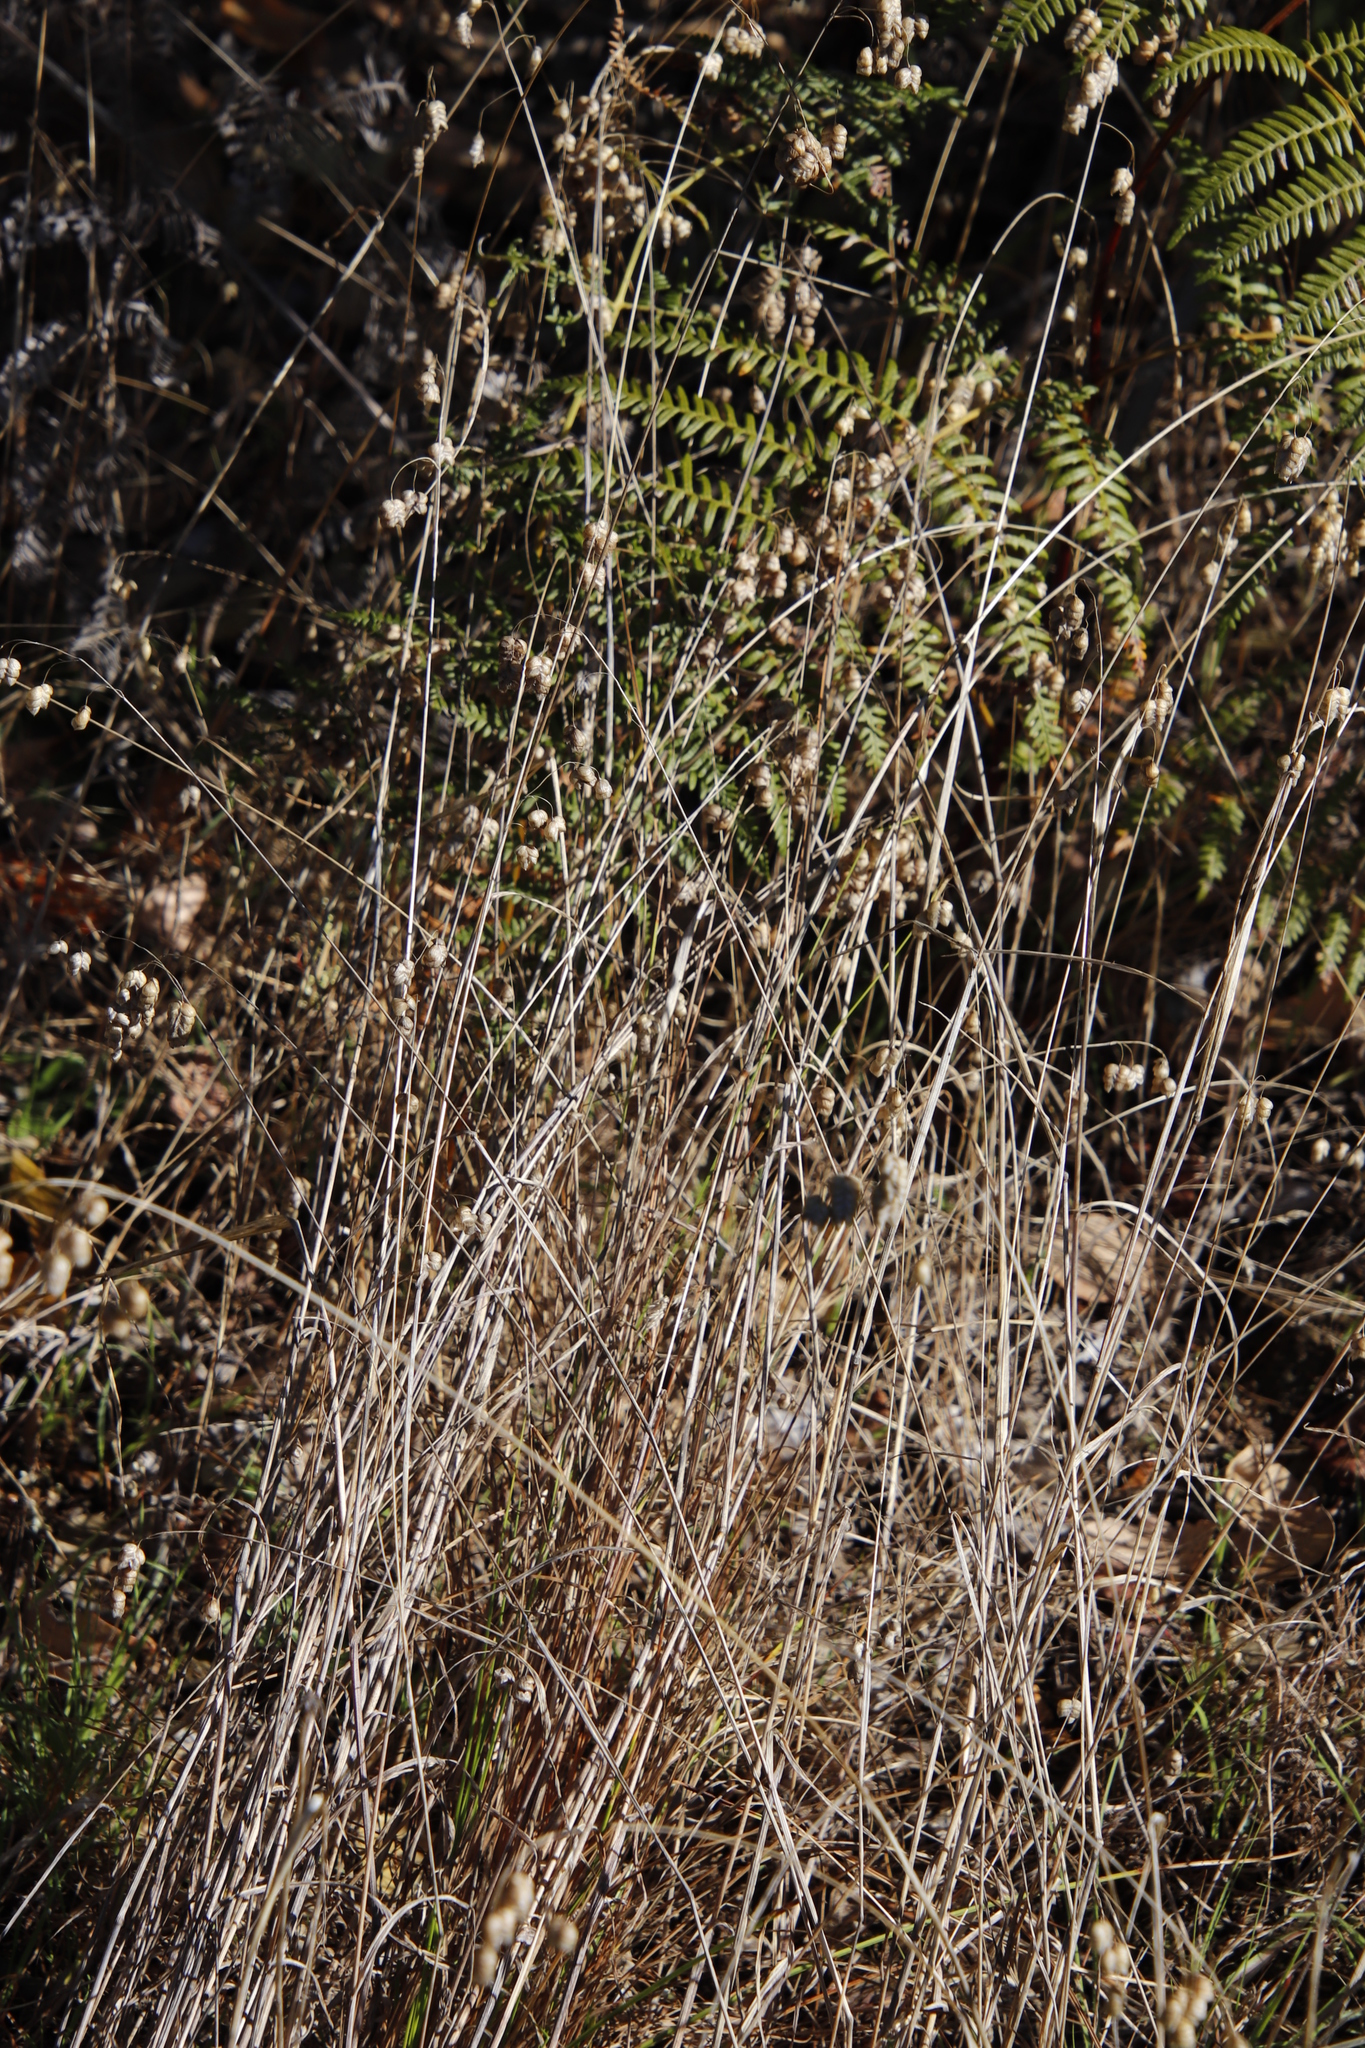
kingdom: Plantae
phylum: Tracheophyta
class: Liliopsida
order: Poales
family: Poaceae
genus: Briza
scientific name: Briza maxima
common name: Big quakinggrass
